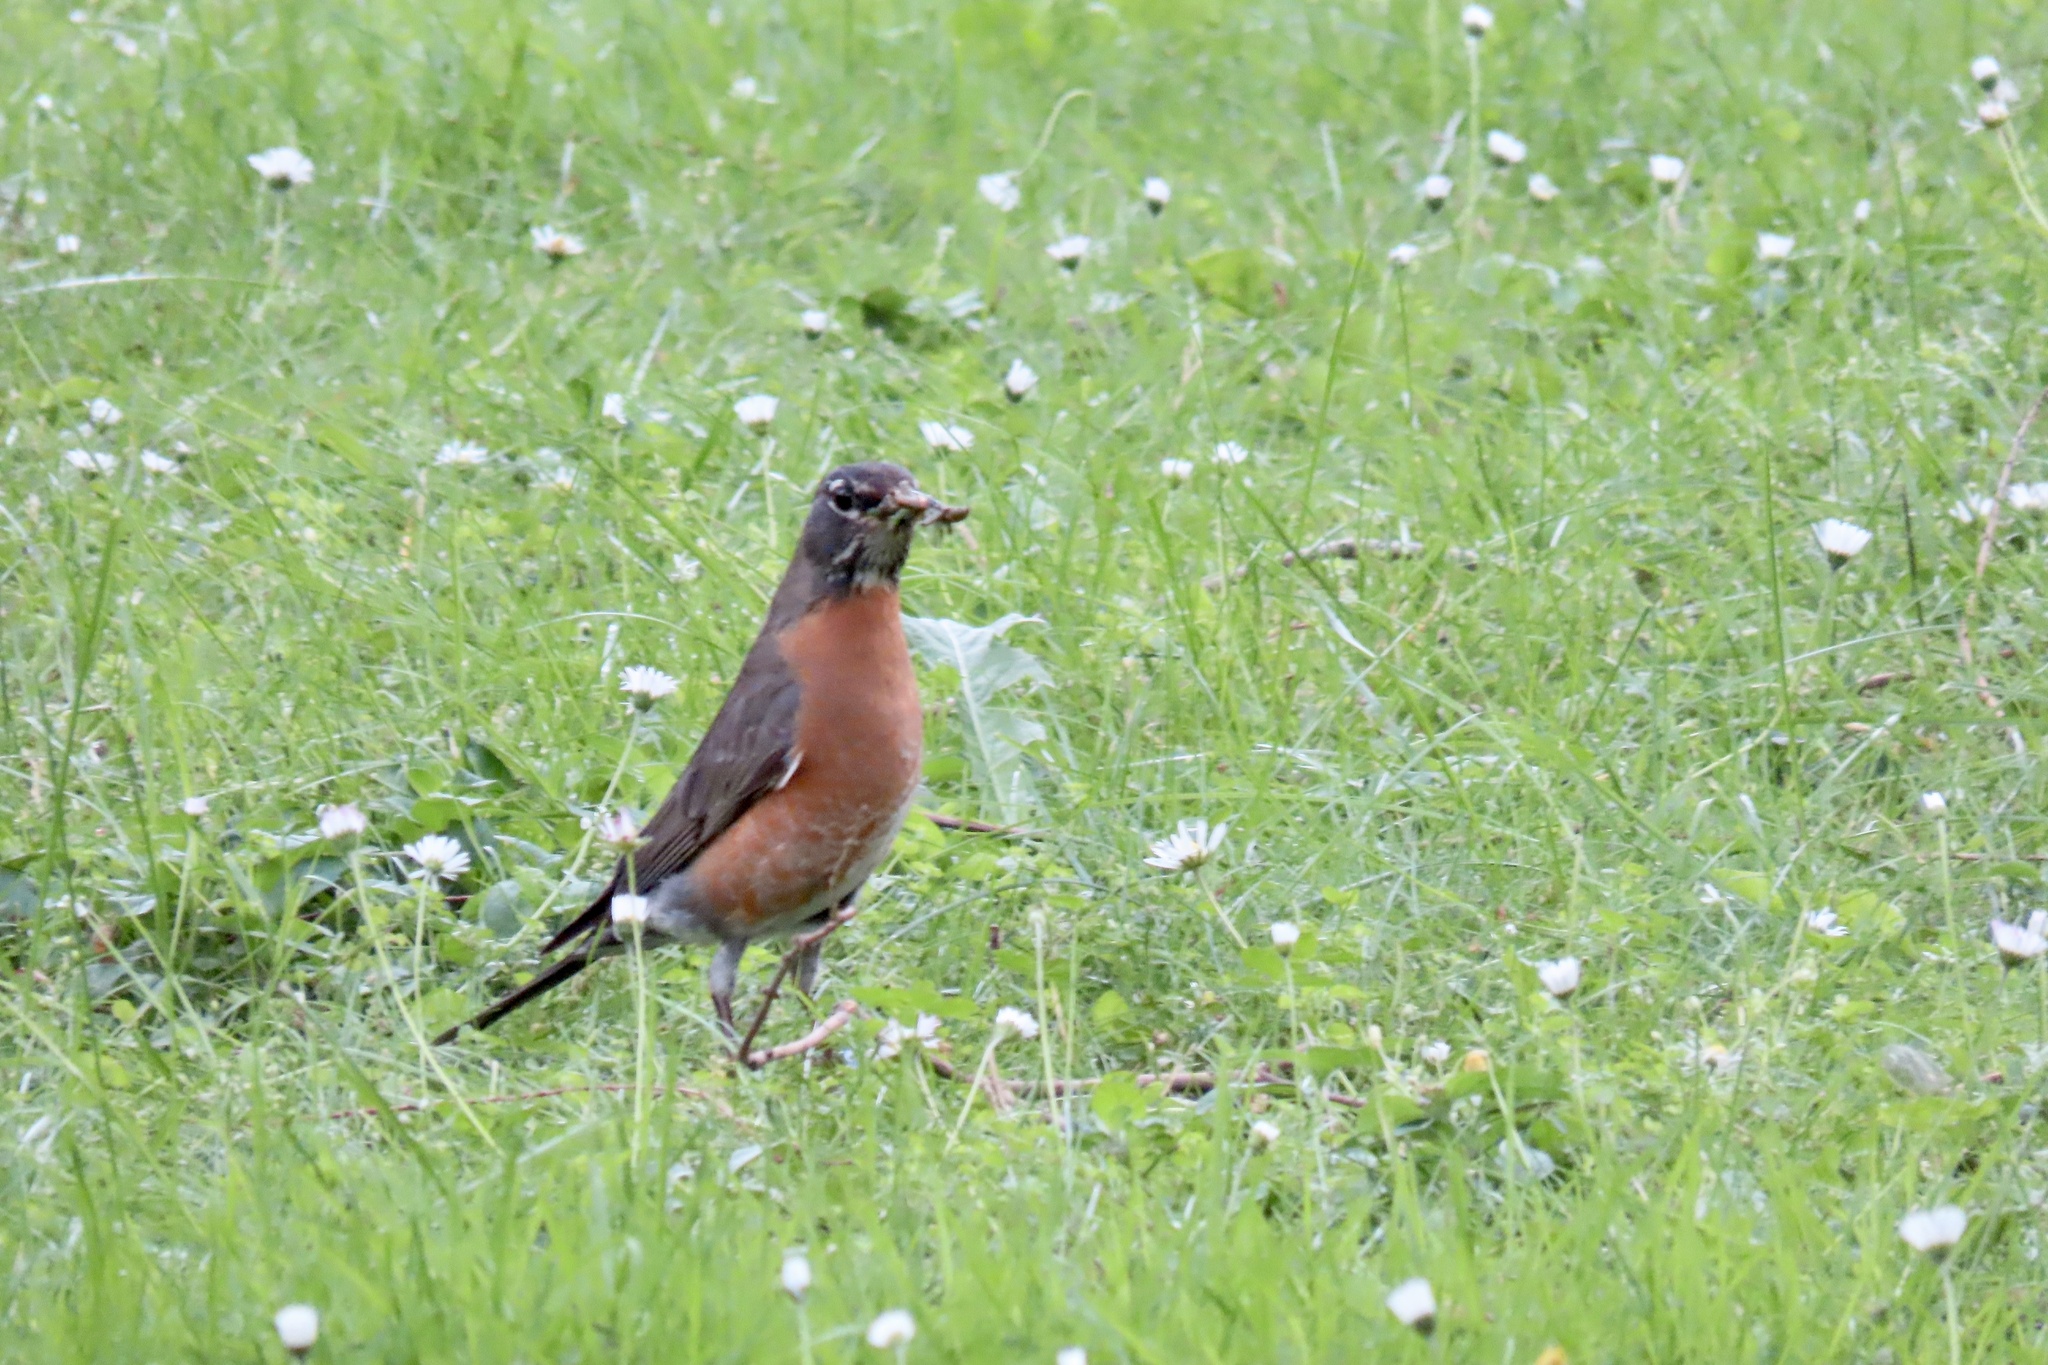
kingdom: Animalia
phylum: Chordata
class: Aves
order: Passeriformes
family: Turdidae
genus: Turdus
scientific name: Turdus migratorius
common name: American robin
